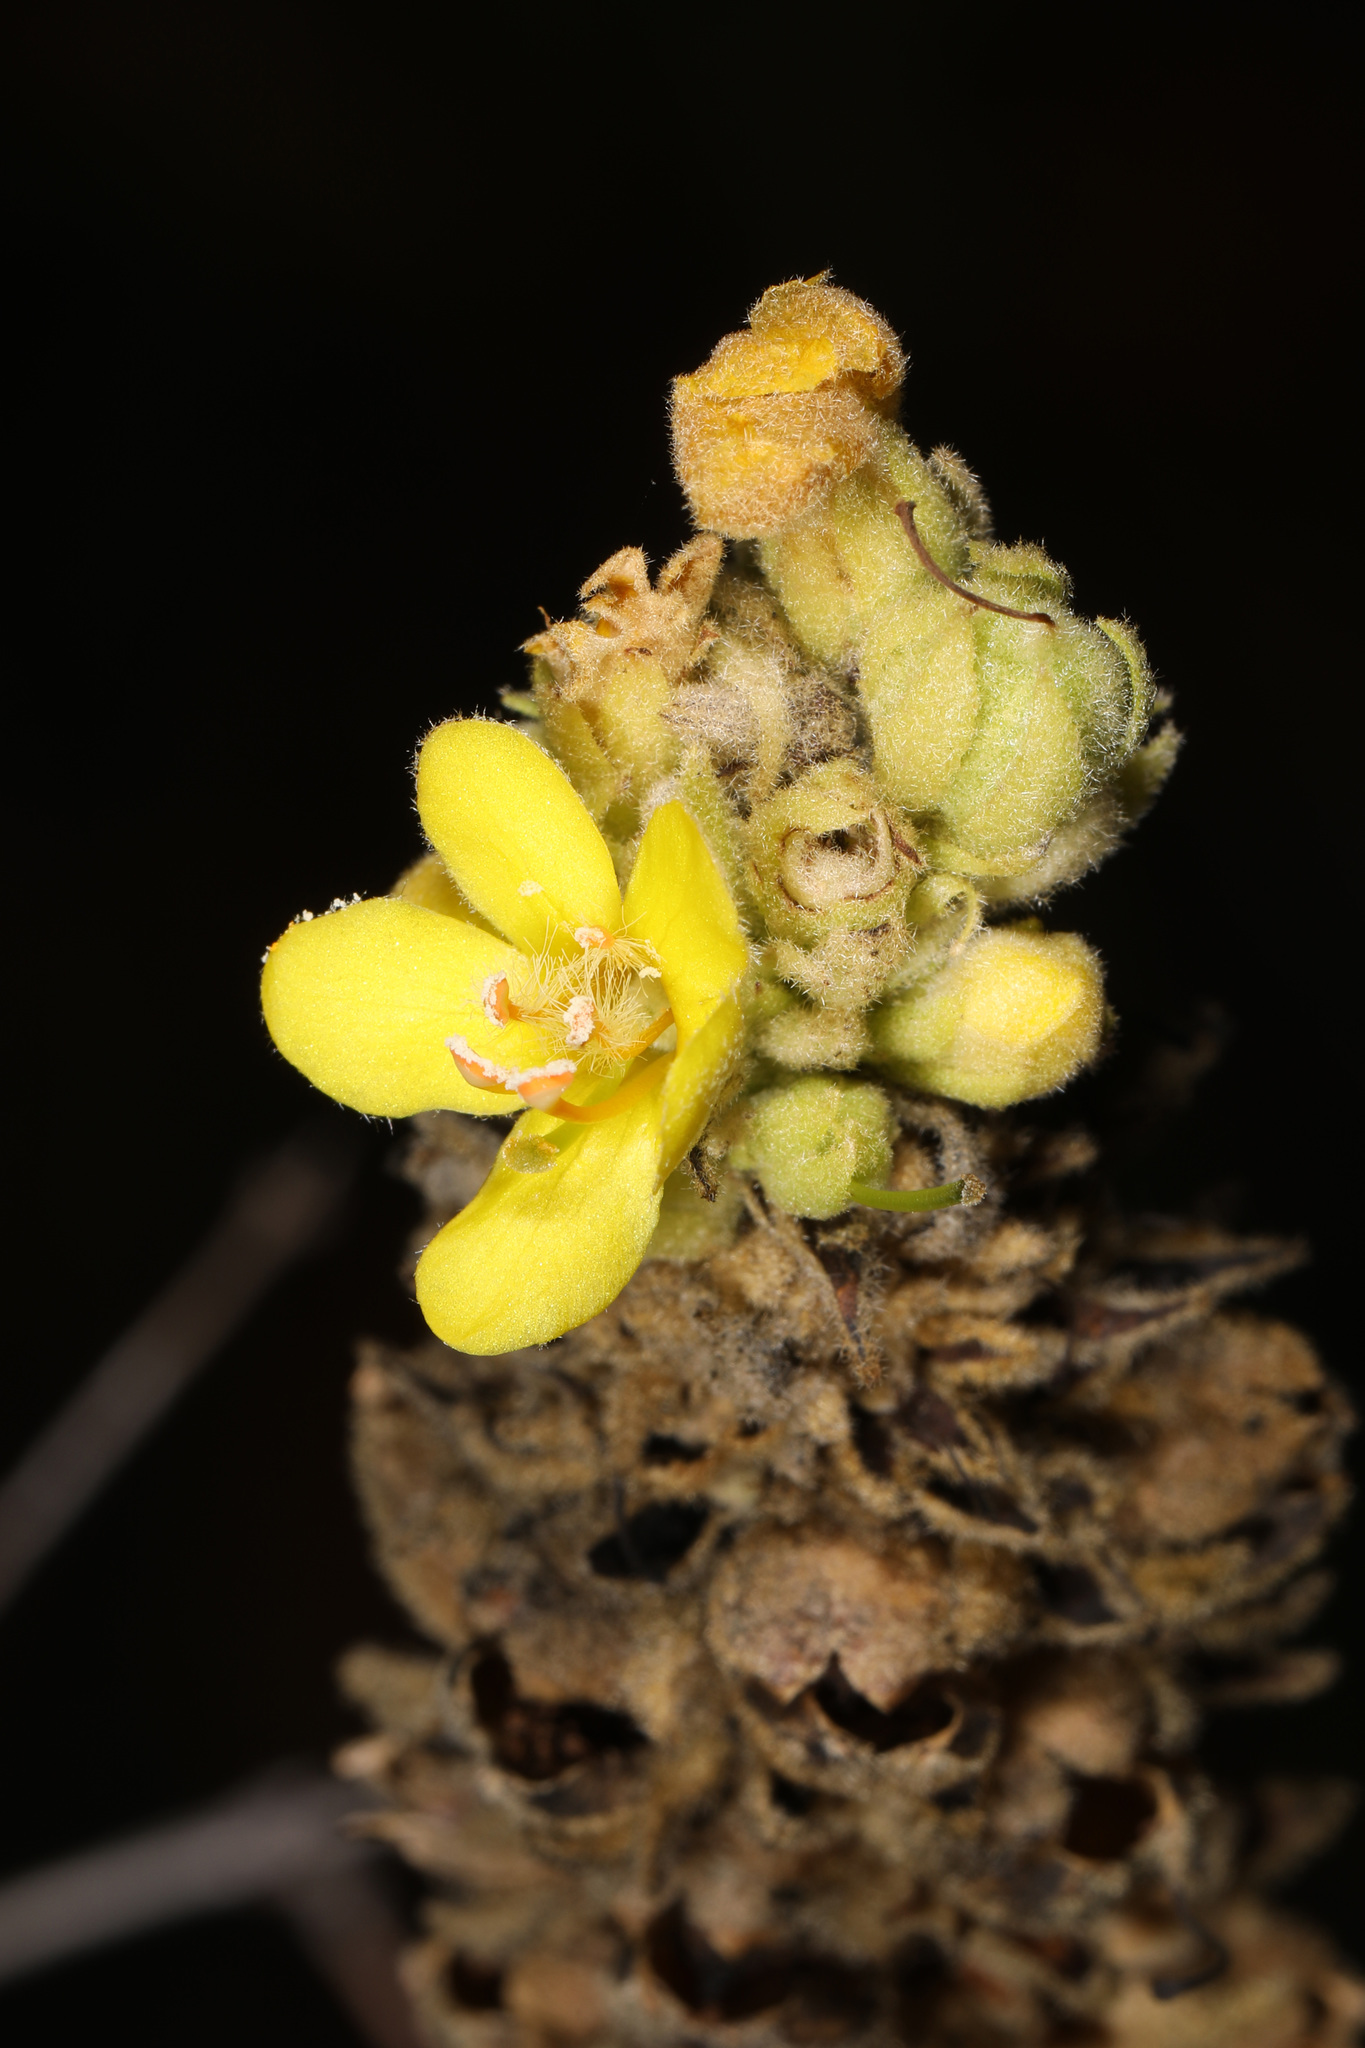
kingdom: Plantae
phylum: Tracheophyta
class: Magnoliopsida
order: Lamiales
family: Scrophulariaceae
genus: Verbascum
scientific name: Verbascum thapsus
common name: Common mullein
